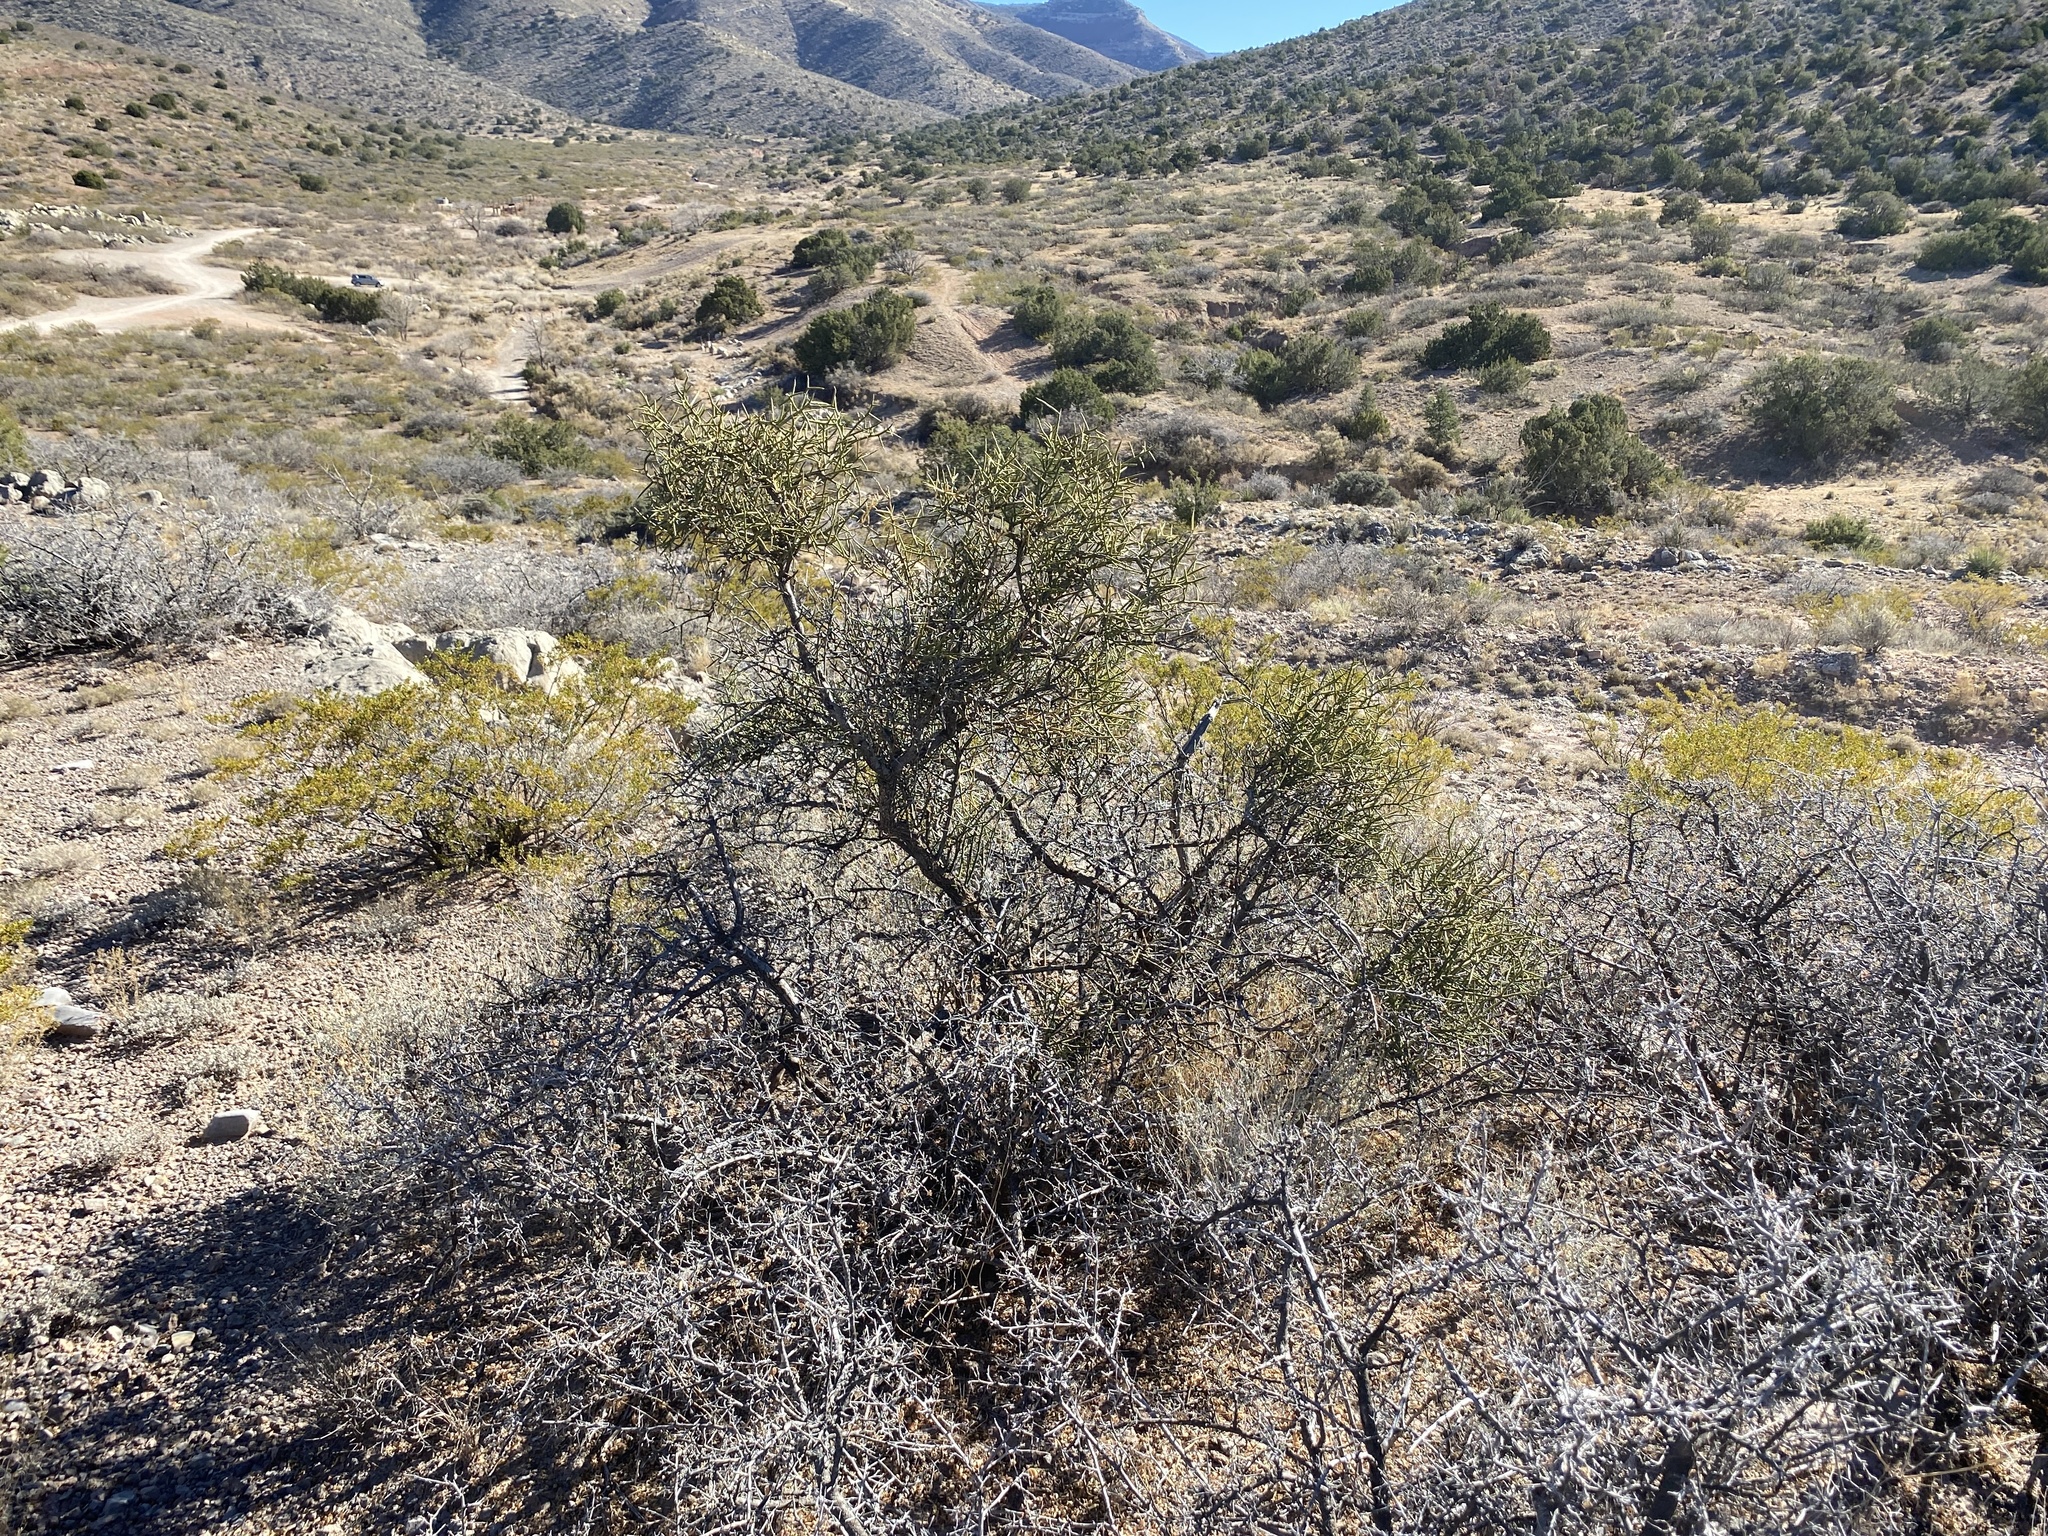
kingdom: Plantae
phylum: Tracheophyta
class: Magnoliopsida
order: Brassicales
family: Koeberliniaceae
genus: Koeberlinia
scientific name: Koeberlinia spinosa
